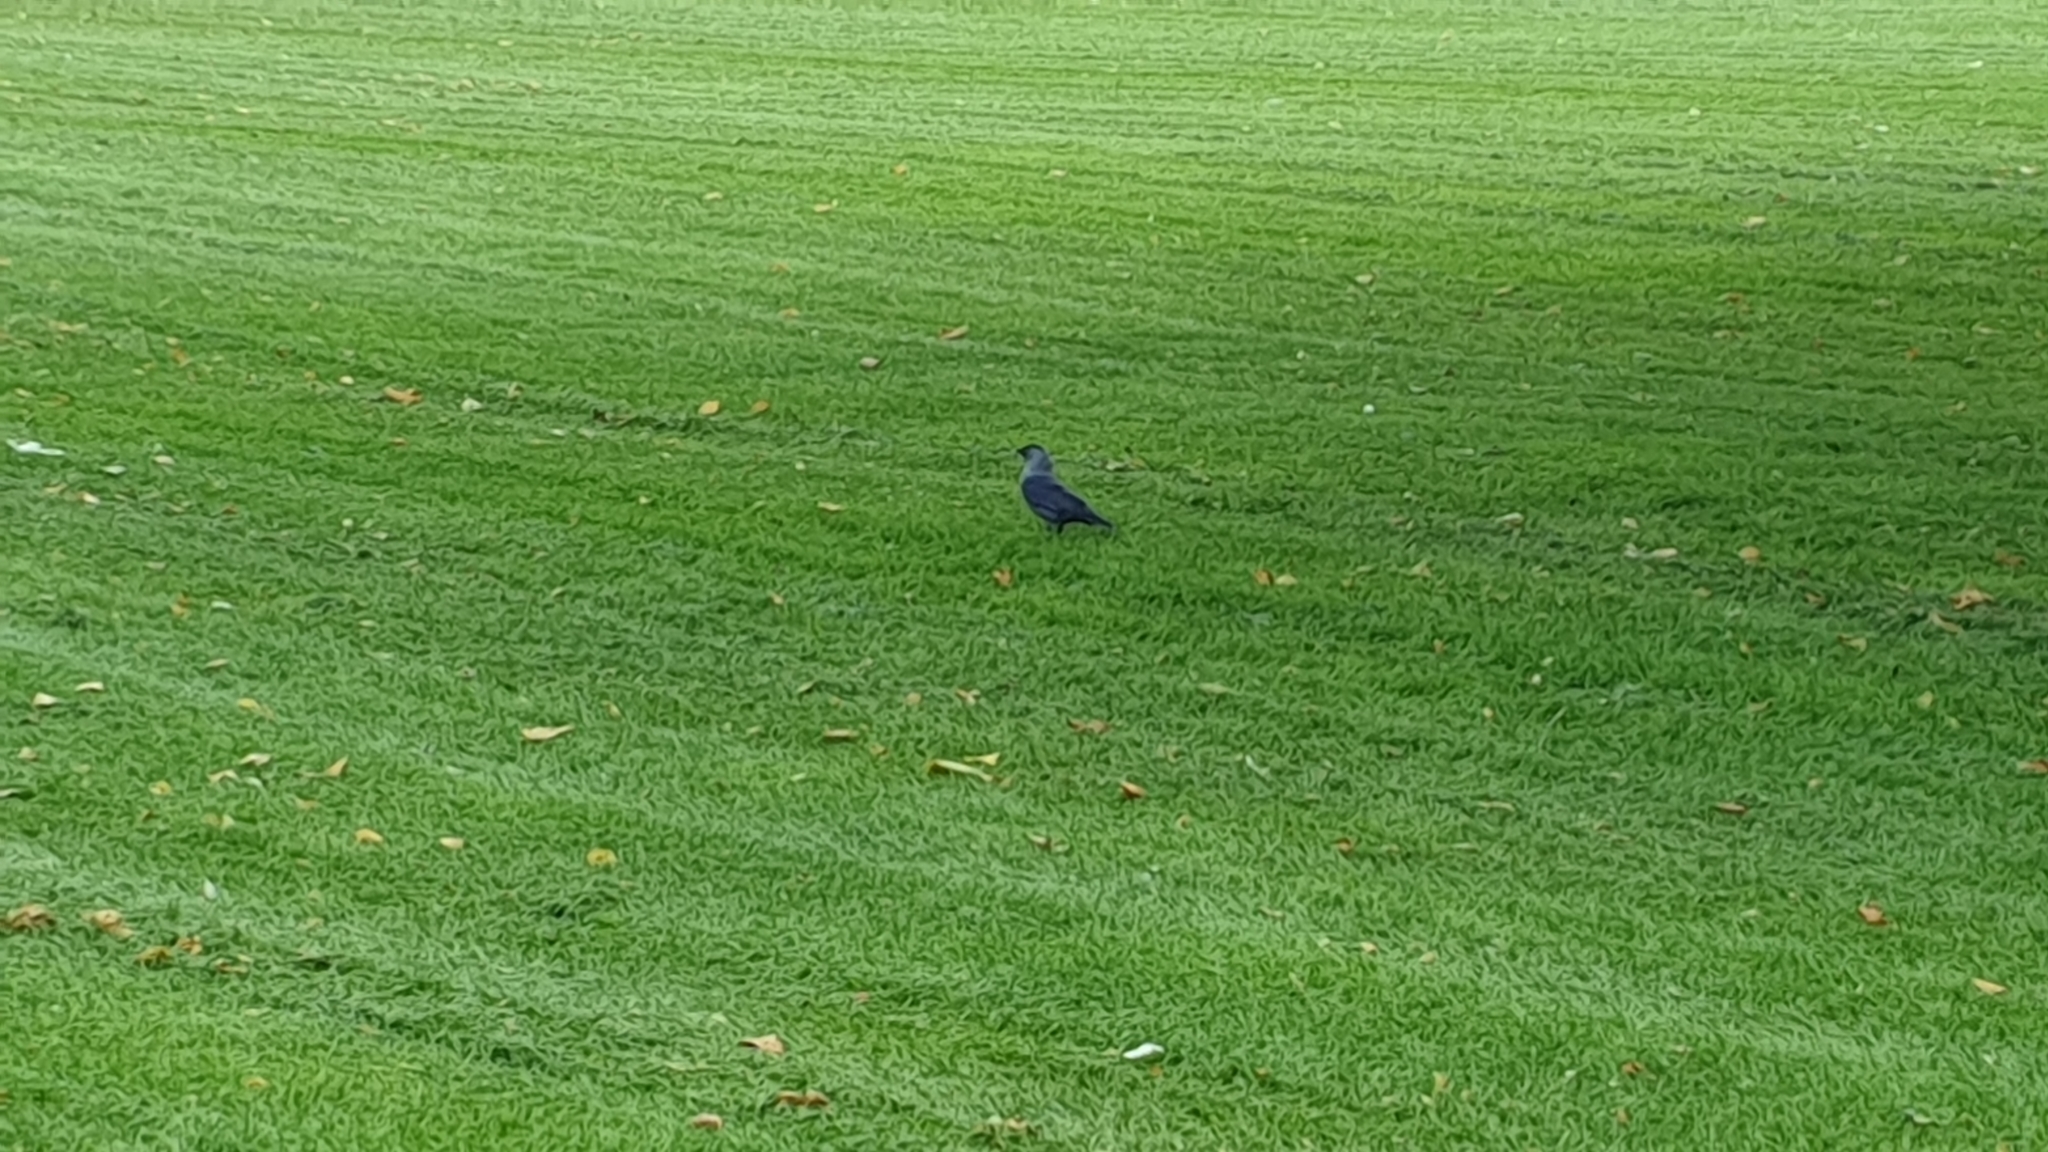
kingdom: Animalia
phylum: Chordata
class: Aves
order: Passeriformes
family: Corvidae
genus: Coloeus
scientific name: Coloeus monedula
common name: Western jackdaw
